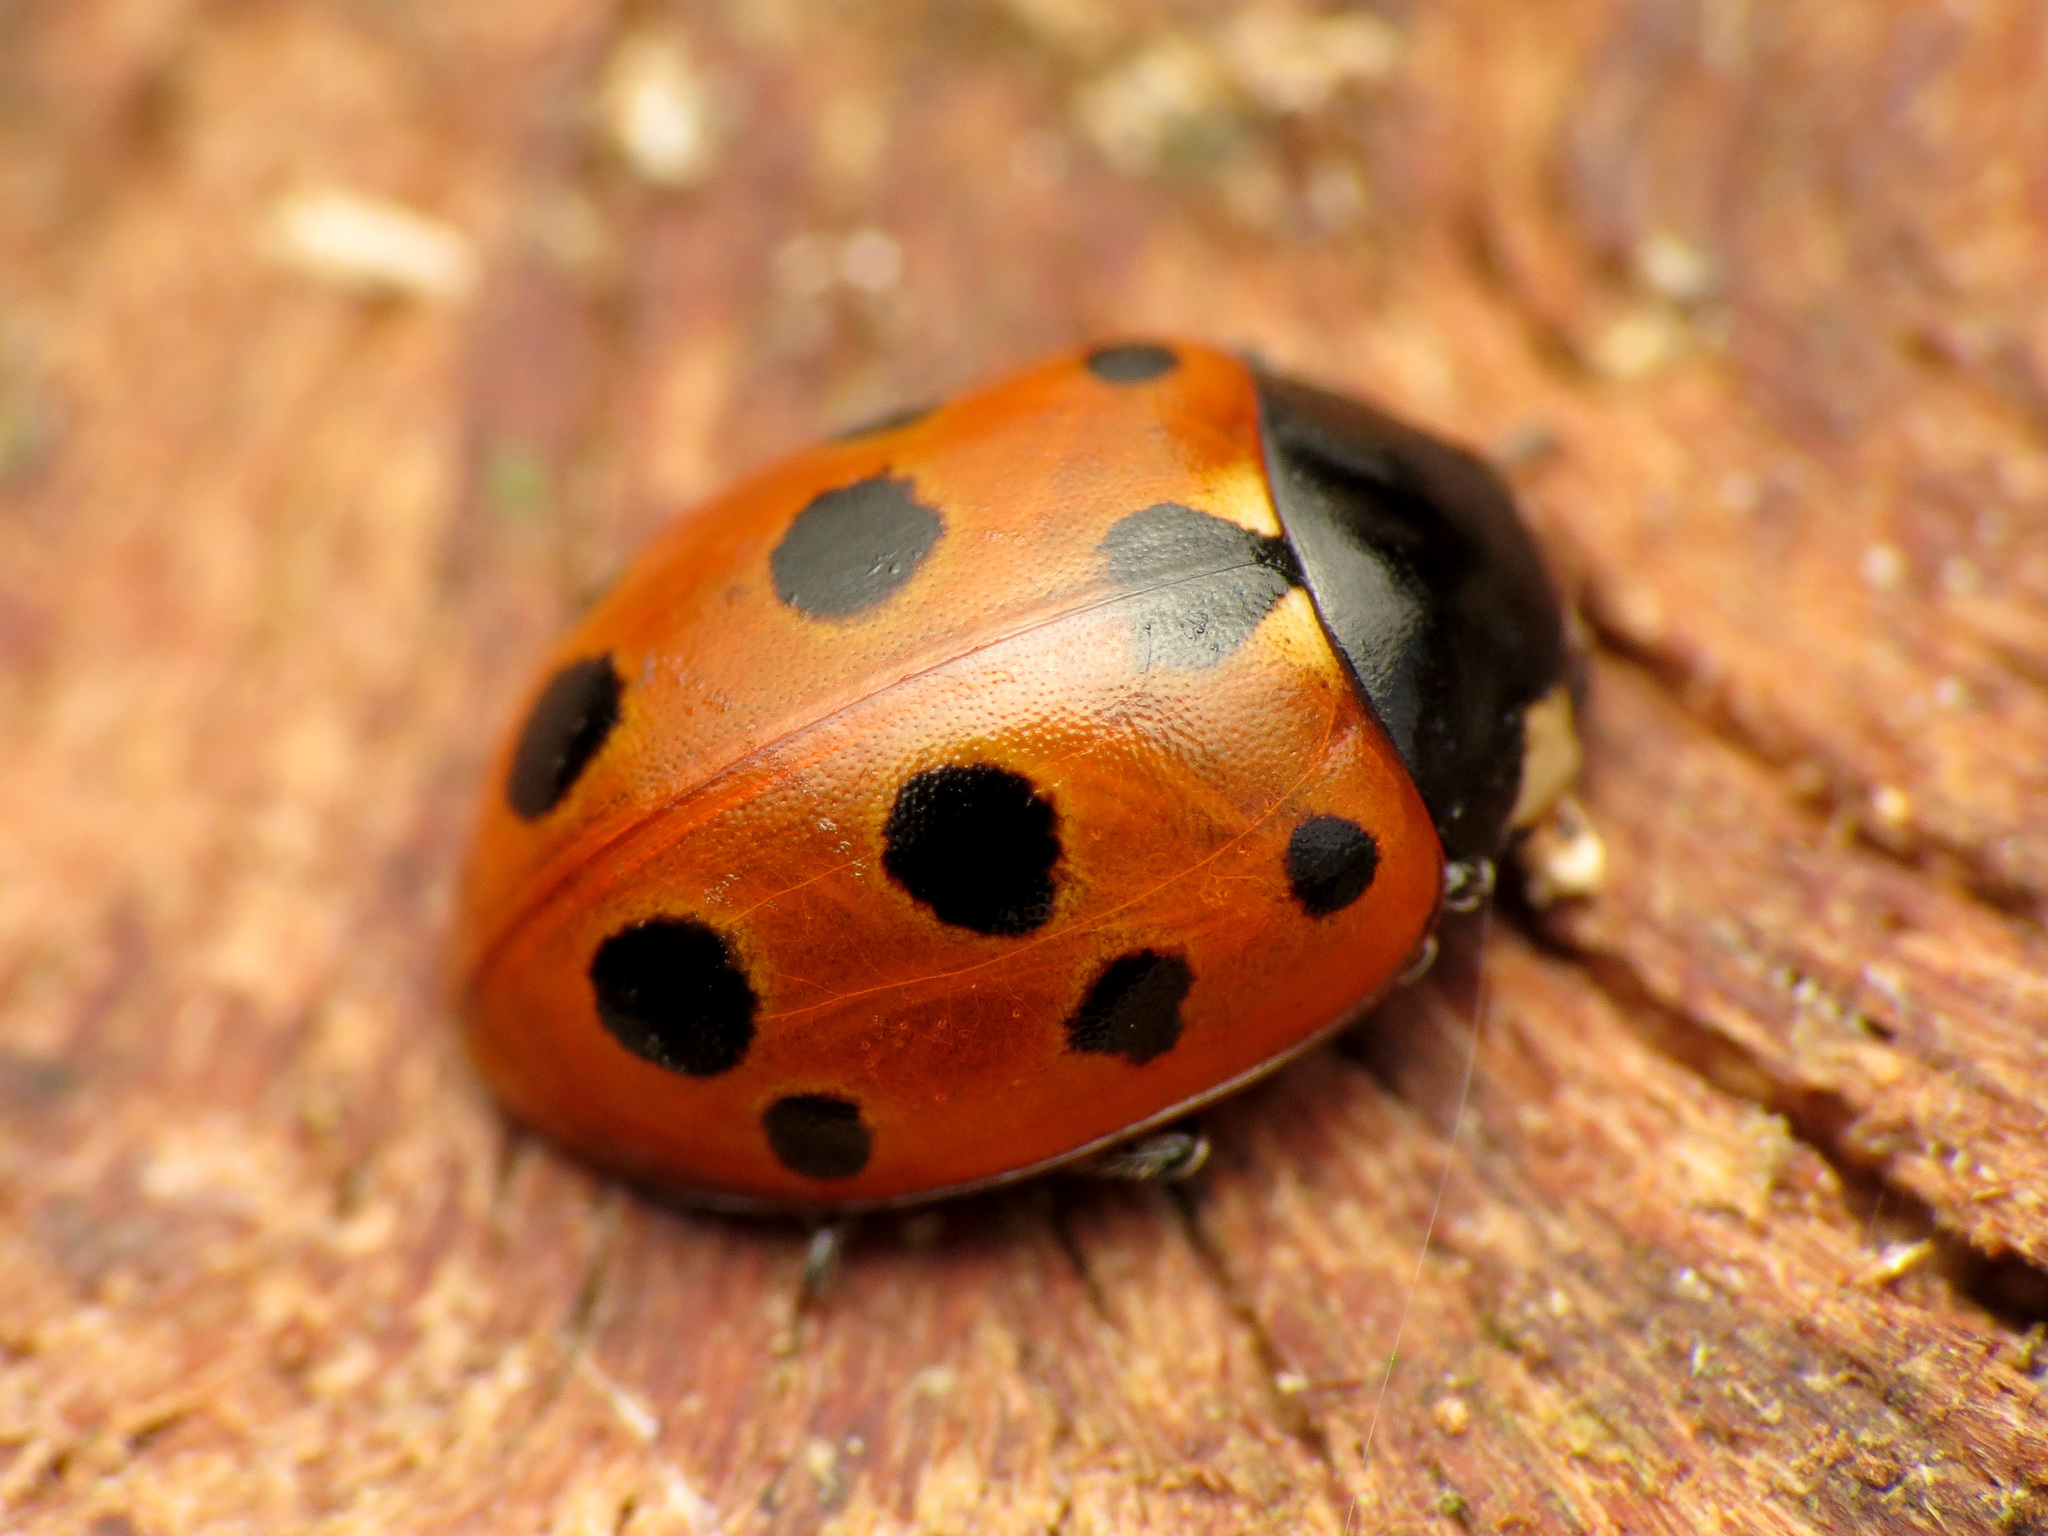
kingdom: Animalia
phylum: Arthropoda
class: Insecta
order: Coleoptera
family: Coccinellidae
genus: Coccinella
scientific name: Coccinella undecimpunctata
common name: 11-spot ladybird
